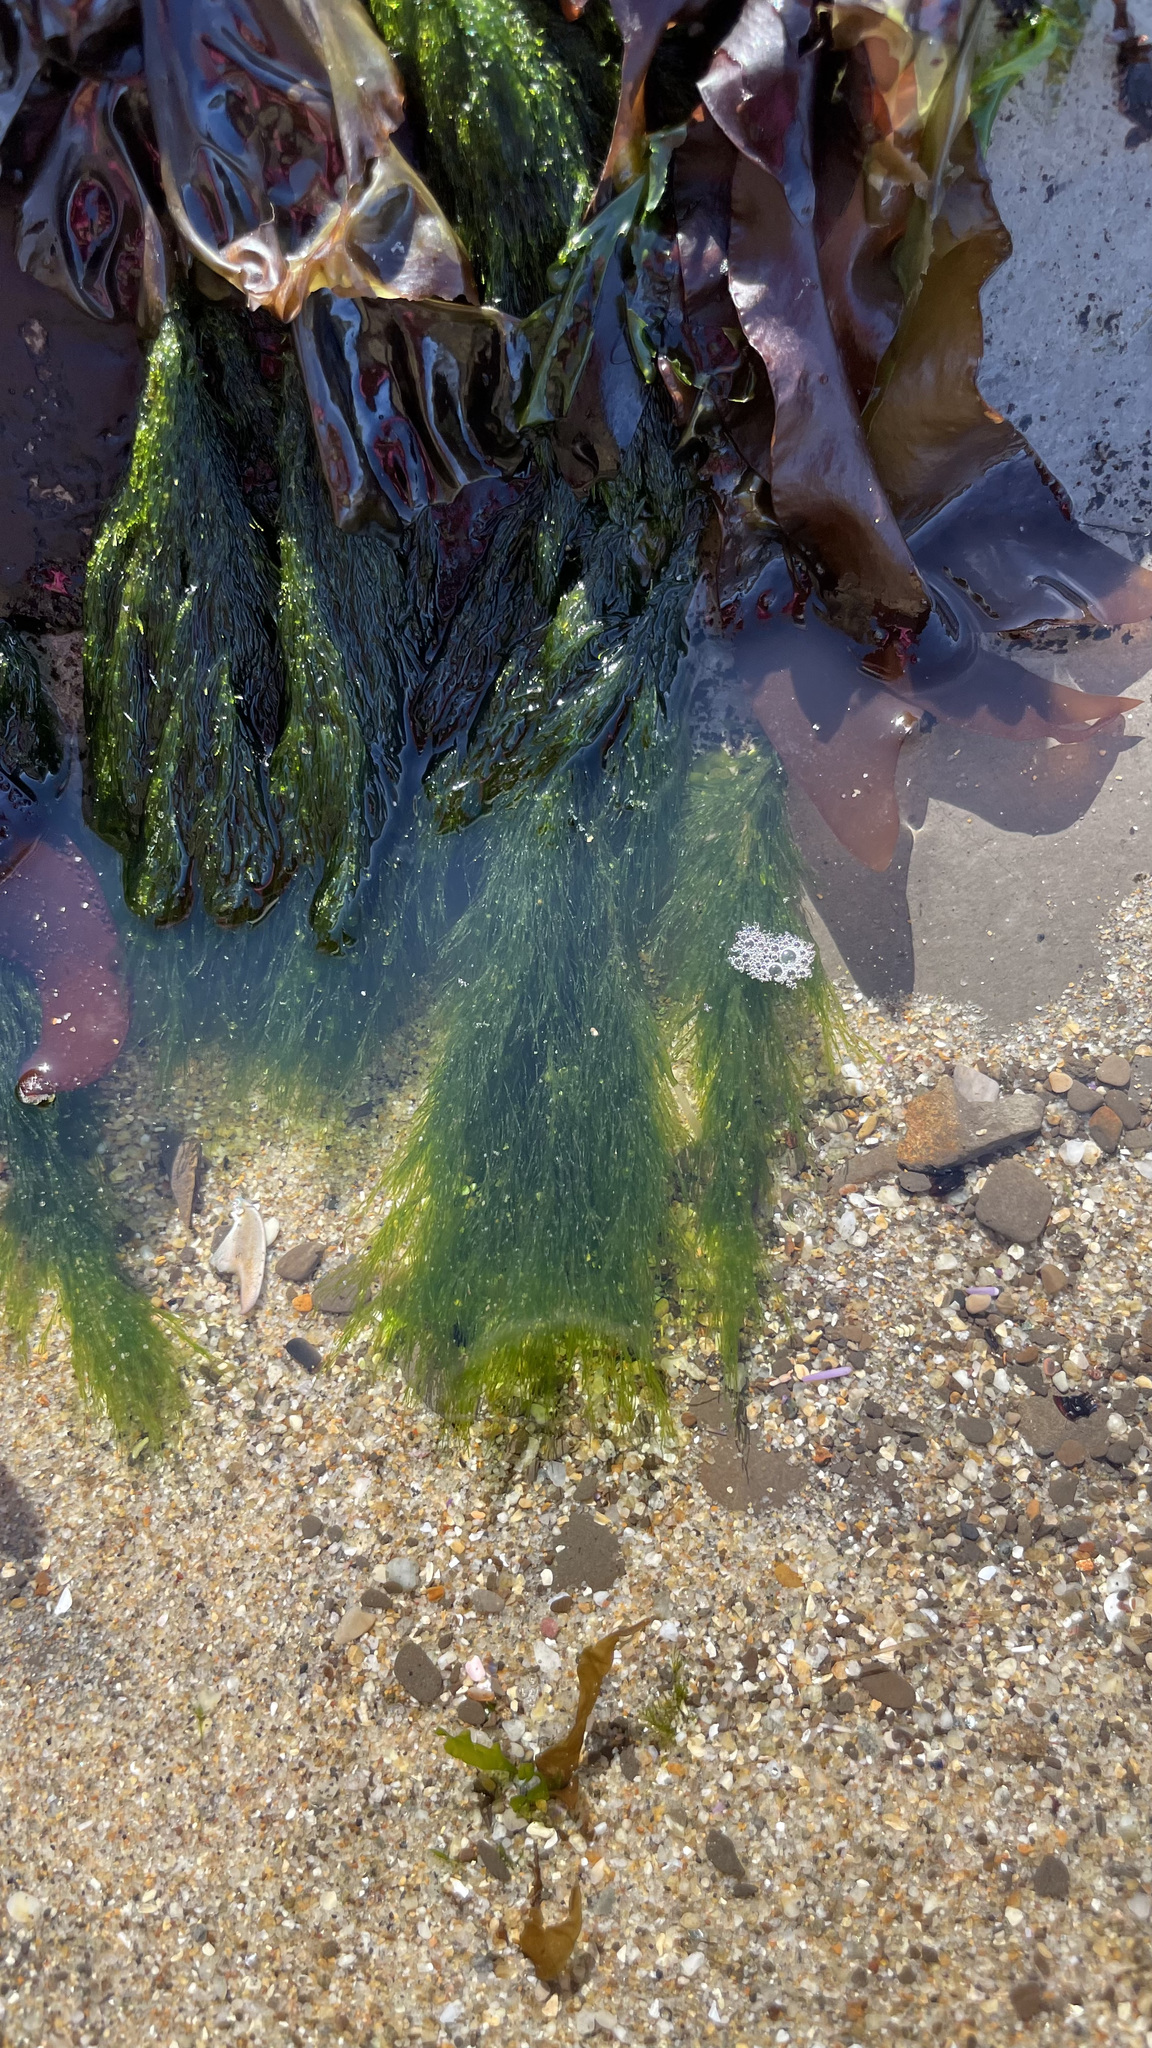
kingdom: Plantae
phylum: Chlorophyta
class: Ulvophyceae
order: Ulotrichales
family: Ulotrichaceae
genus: Acrosiphonia
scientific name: Acrosiphonia
